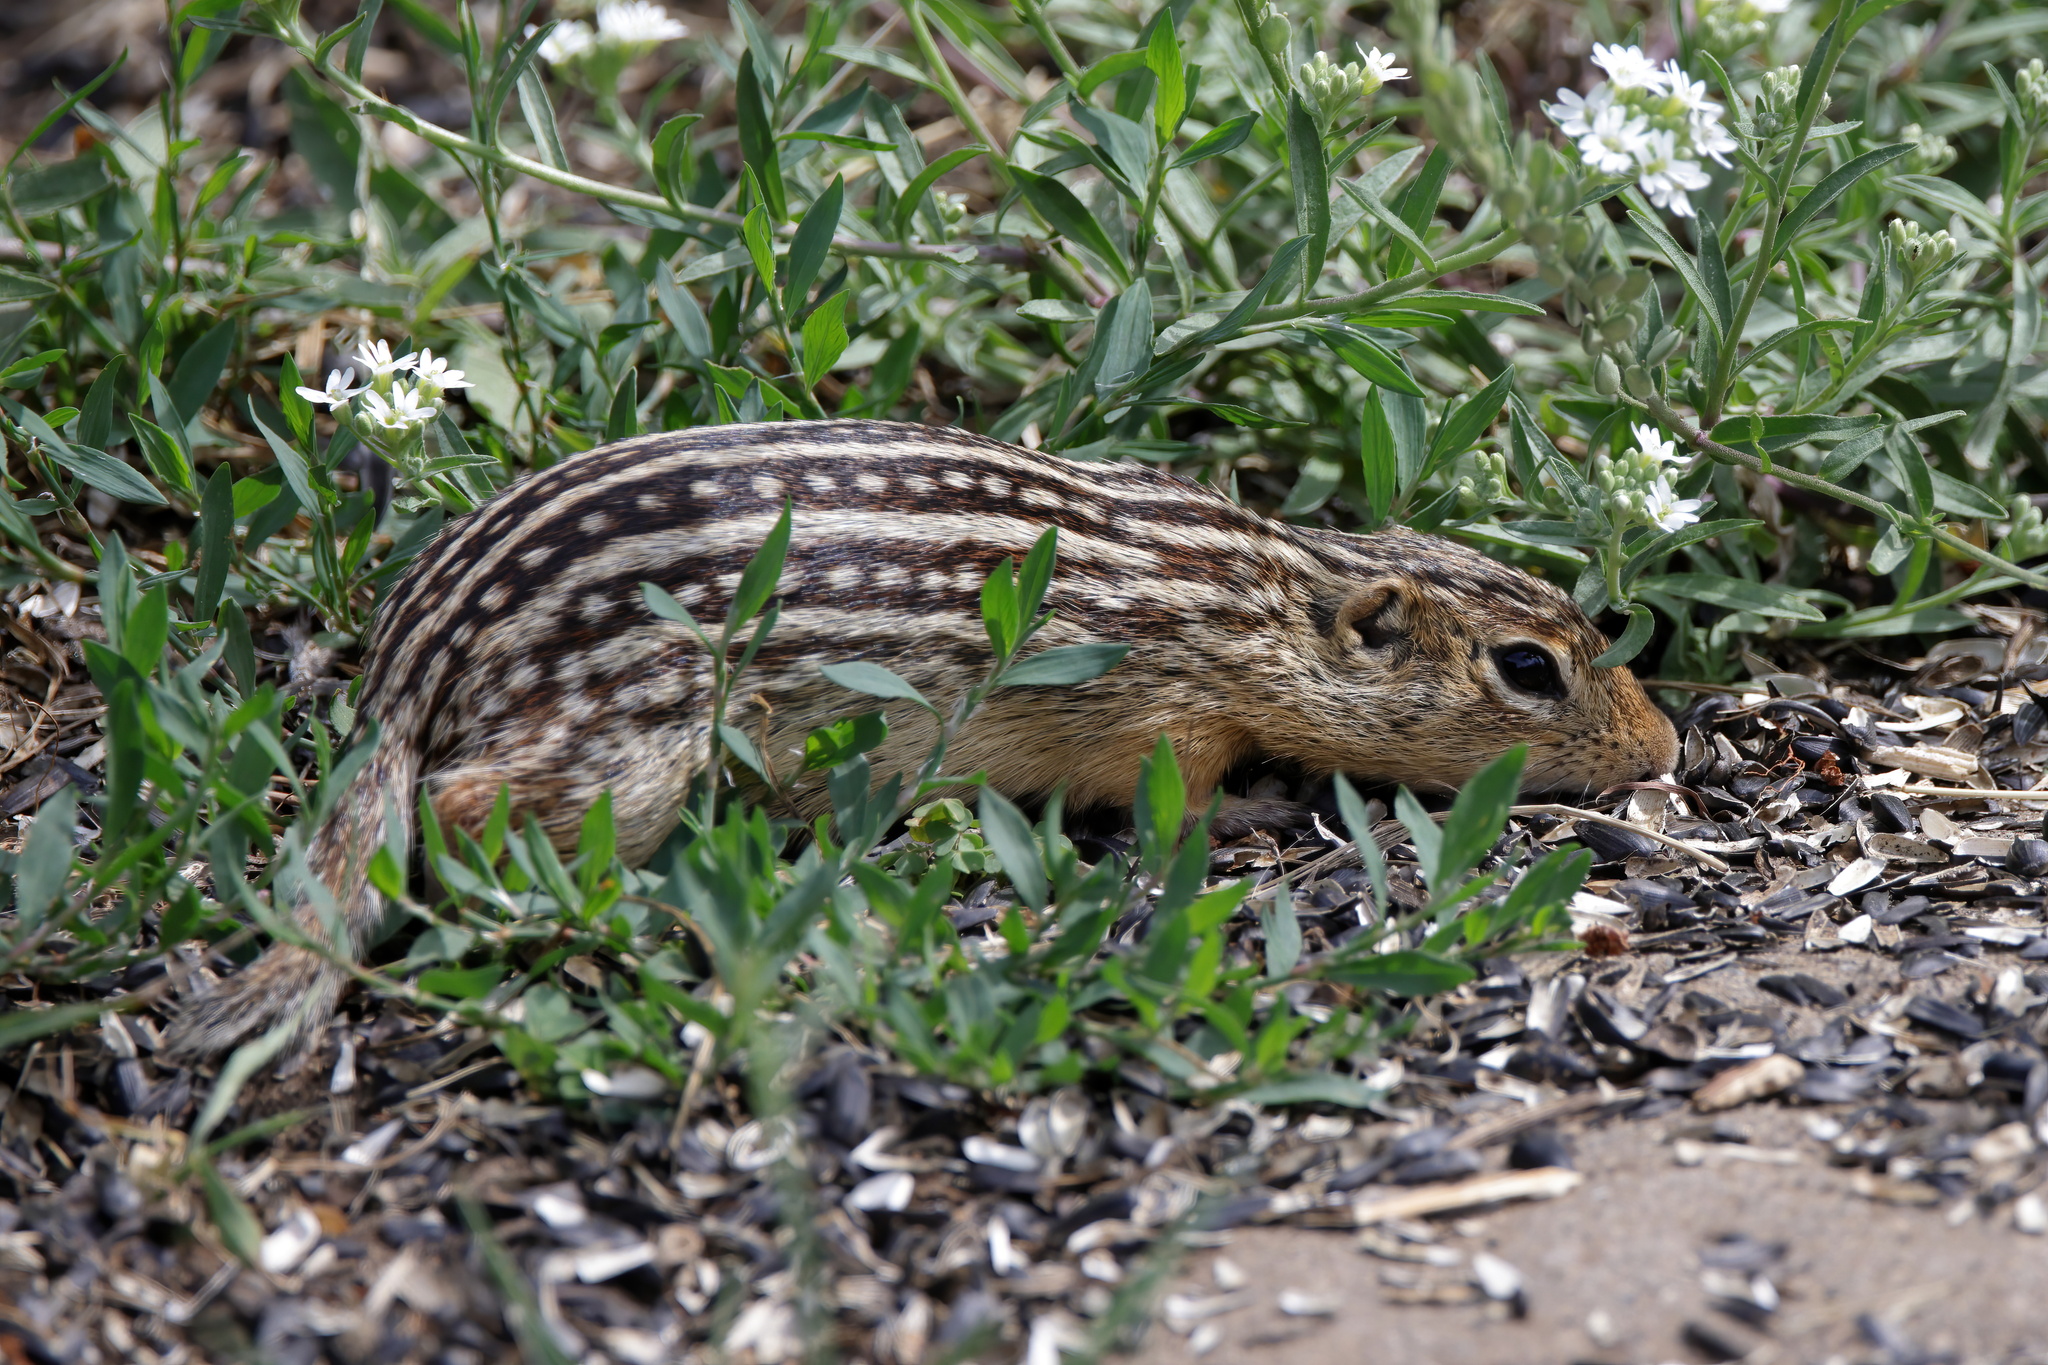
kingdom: Animalia
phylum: Chordata
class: Mammalia
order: Rodentia
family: Sciuridae
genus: Ictidomys
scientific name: Ictidomys tridecemlineatus
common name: Thirteen-lined ground squirrel
